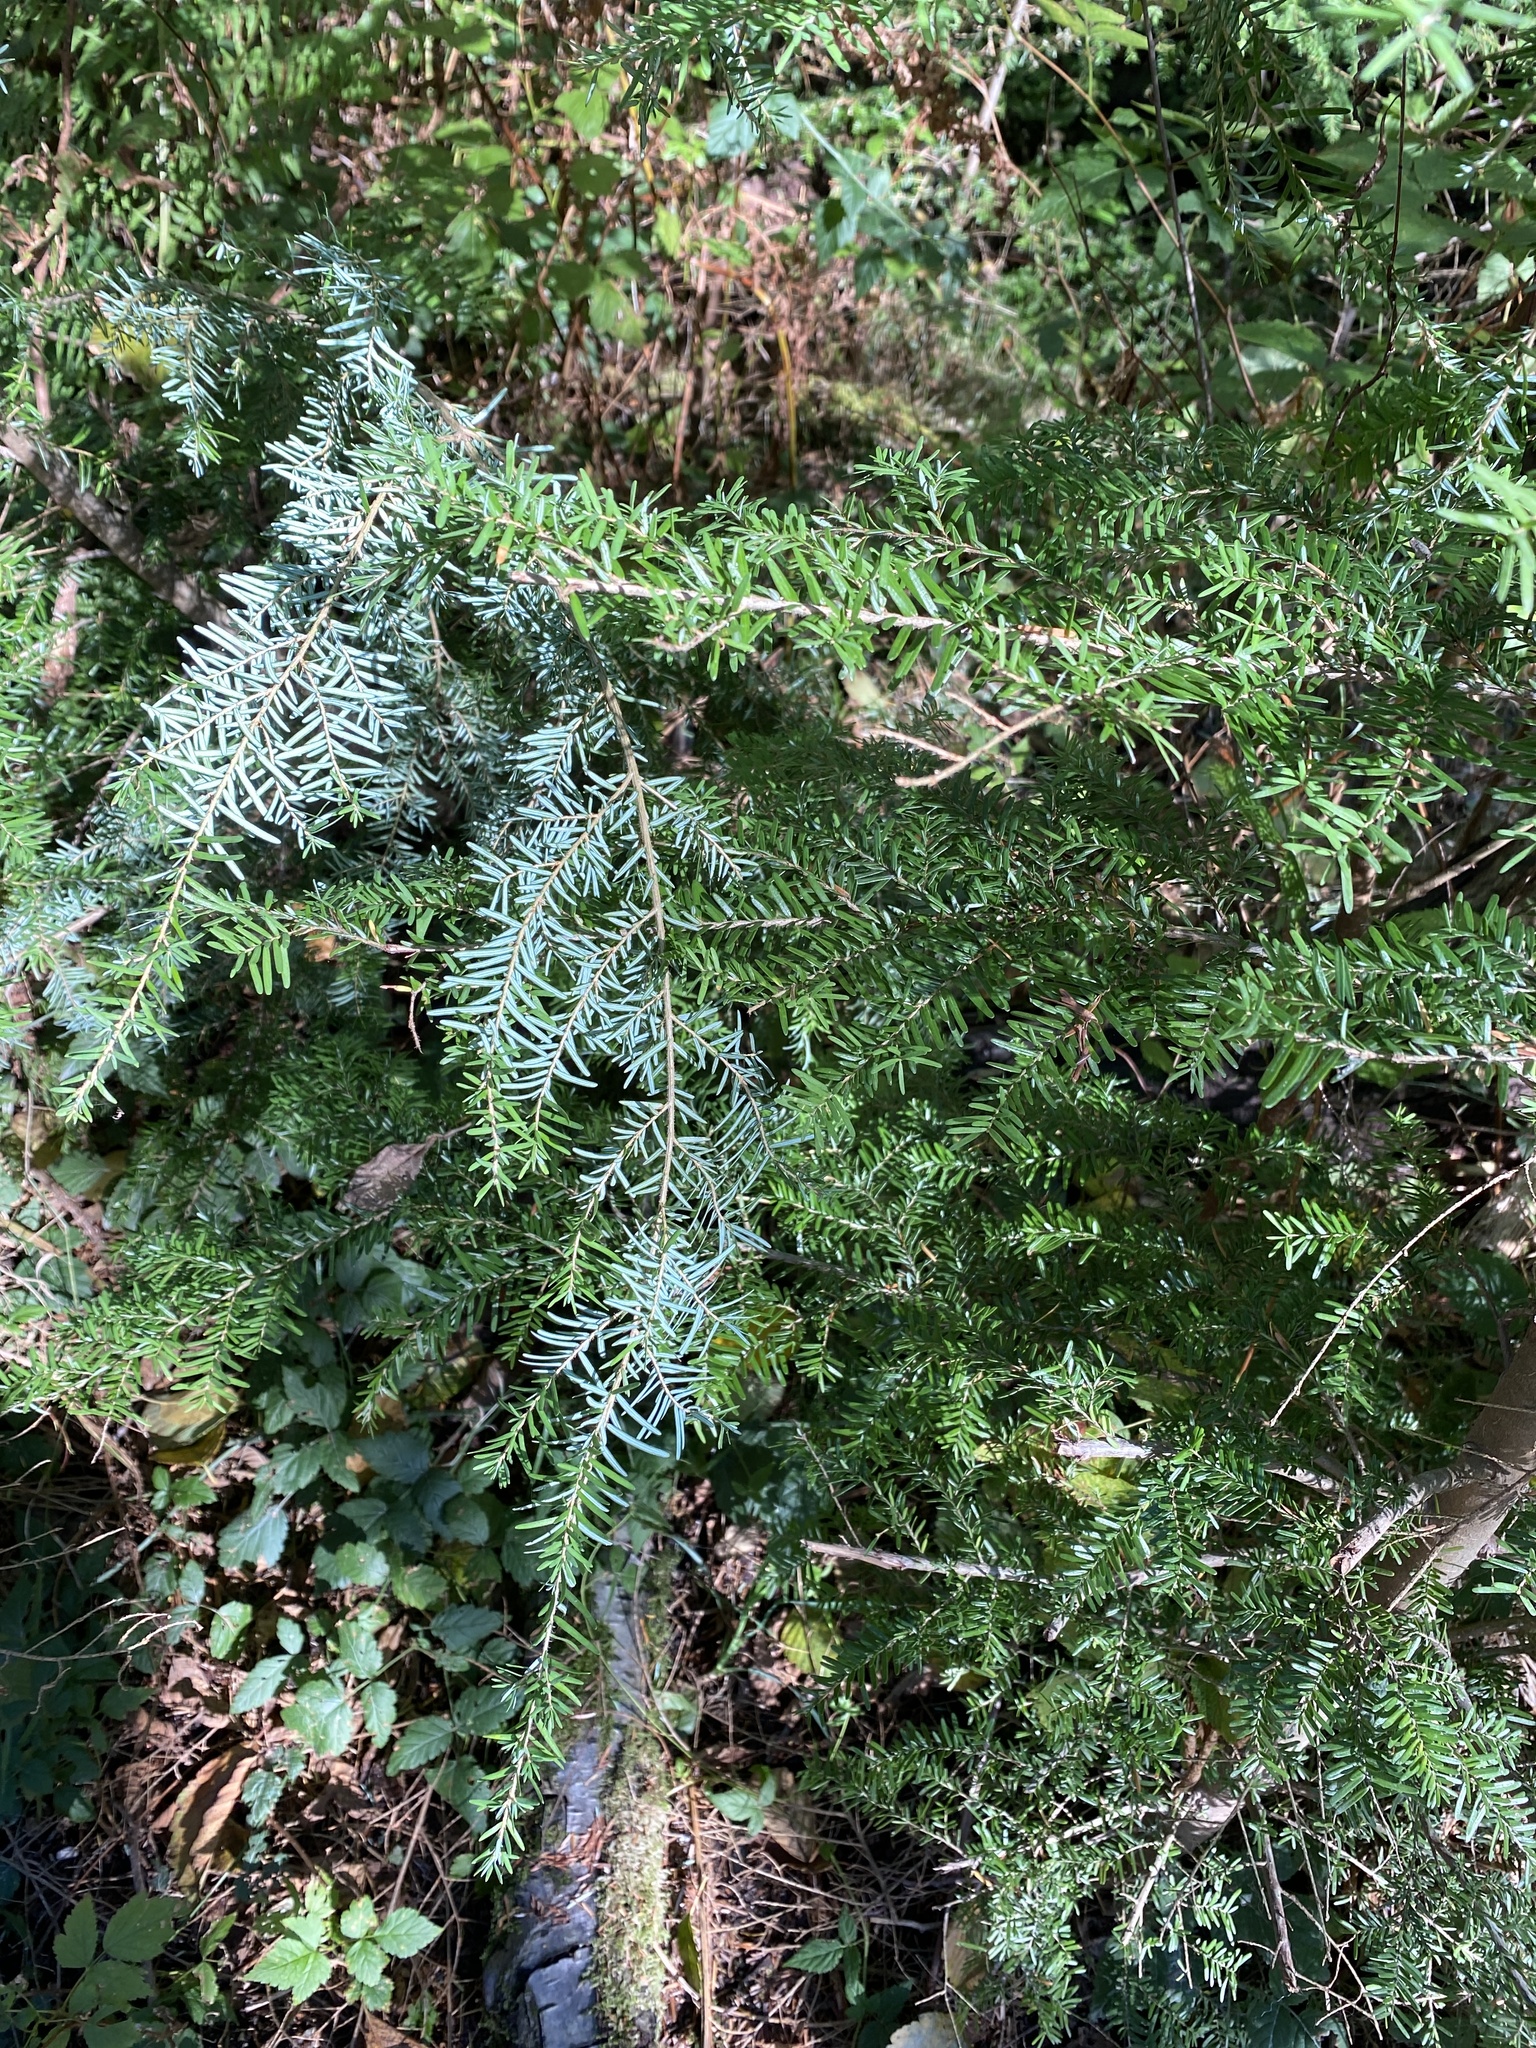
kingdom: Plantae
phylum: Tracheophyta
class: Pinopsida
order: Pinales
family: Pinaceae
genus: Tsuga
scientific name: Tsuga heterophylla
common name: Western hemlock
